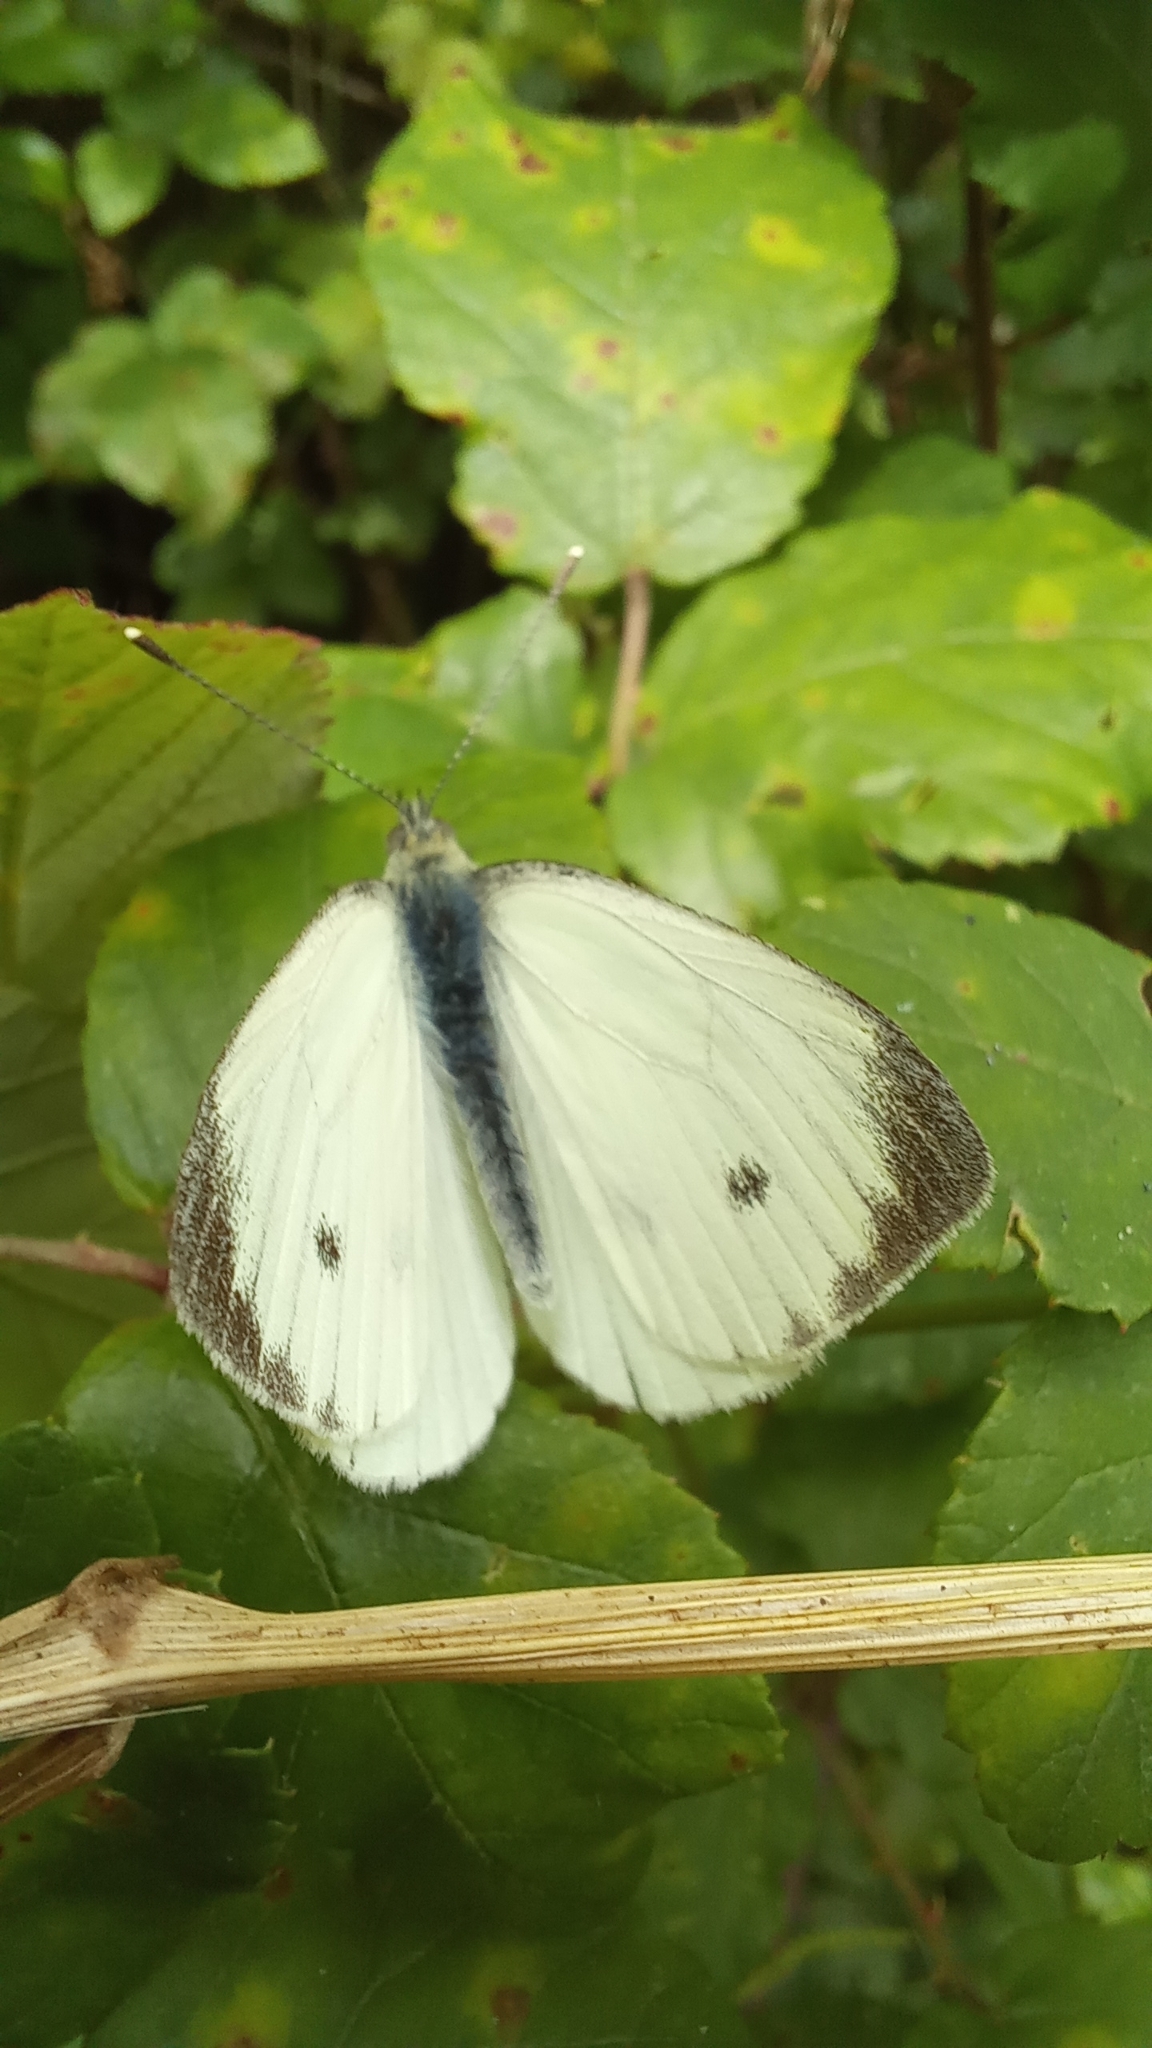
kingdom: Animalia
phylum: Arthropoda
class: Insecta
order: Lepidoptera
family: Pieridae
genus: Pieris
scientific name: Pieris napi
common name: Green-veined white
